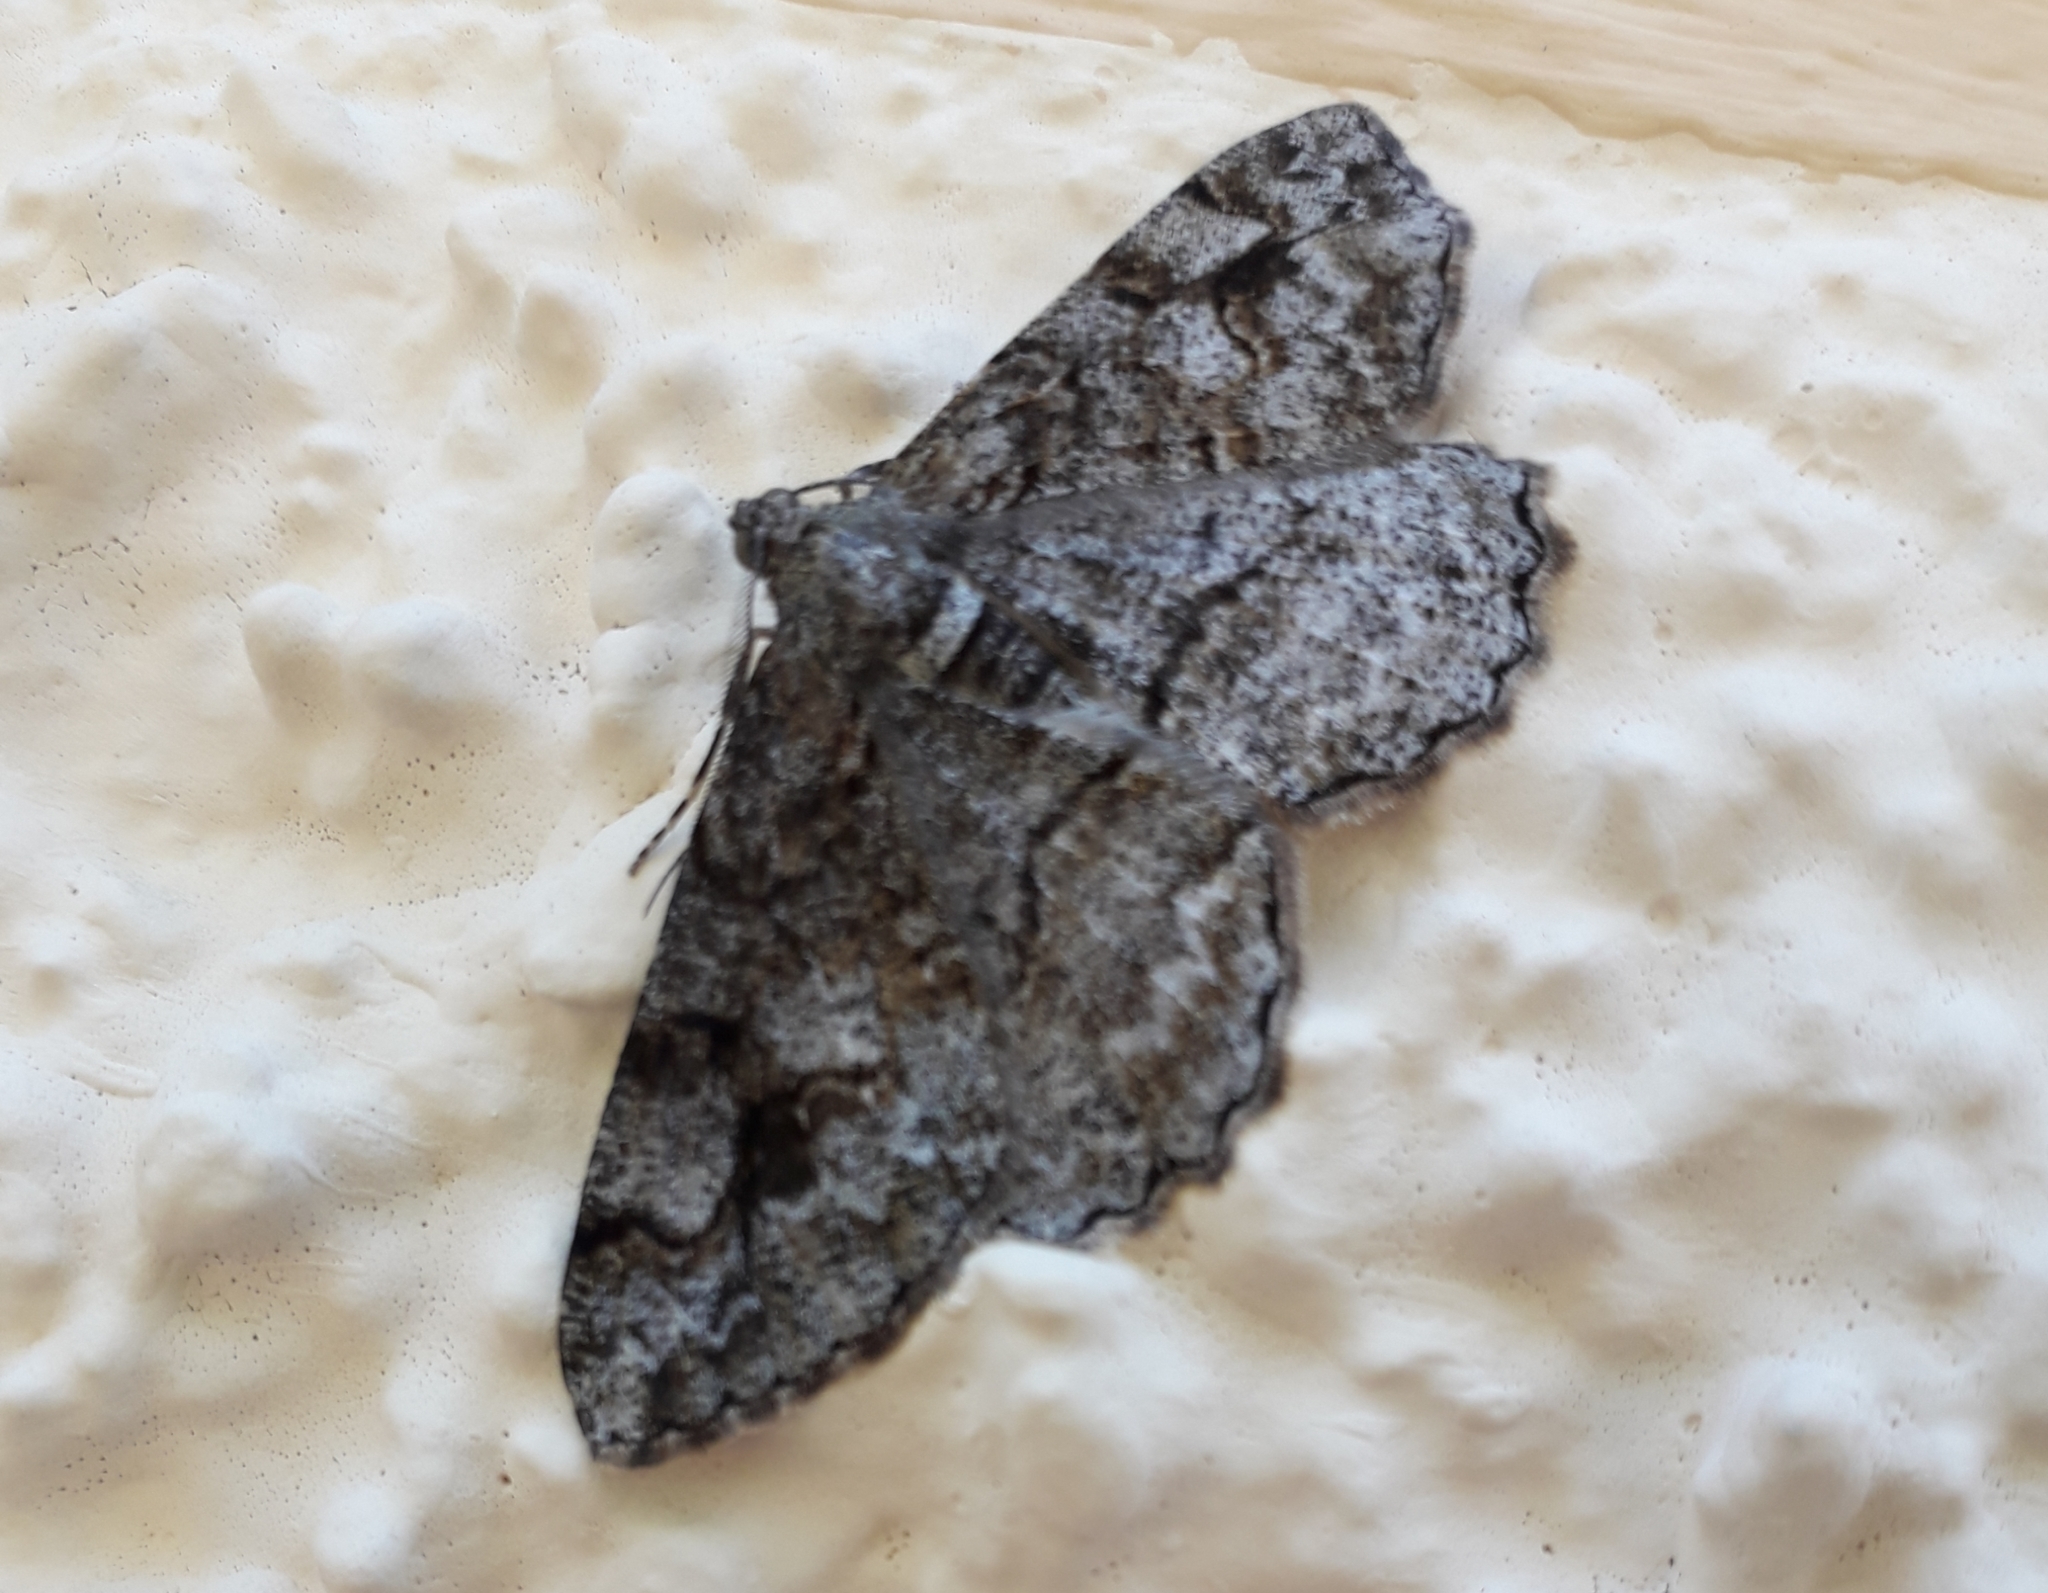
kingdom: Animalia
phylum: Arthropoda
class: Insecta
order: Lepidoptera
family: Geometridae
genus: Alcis
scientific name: Alcis repandata
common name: Mottled beauty
